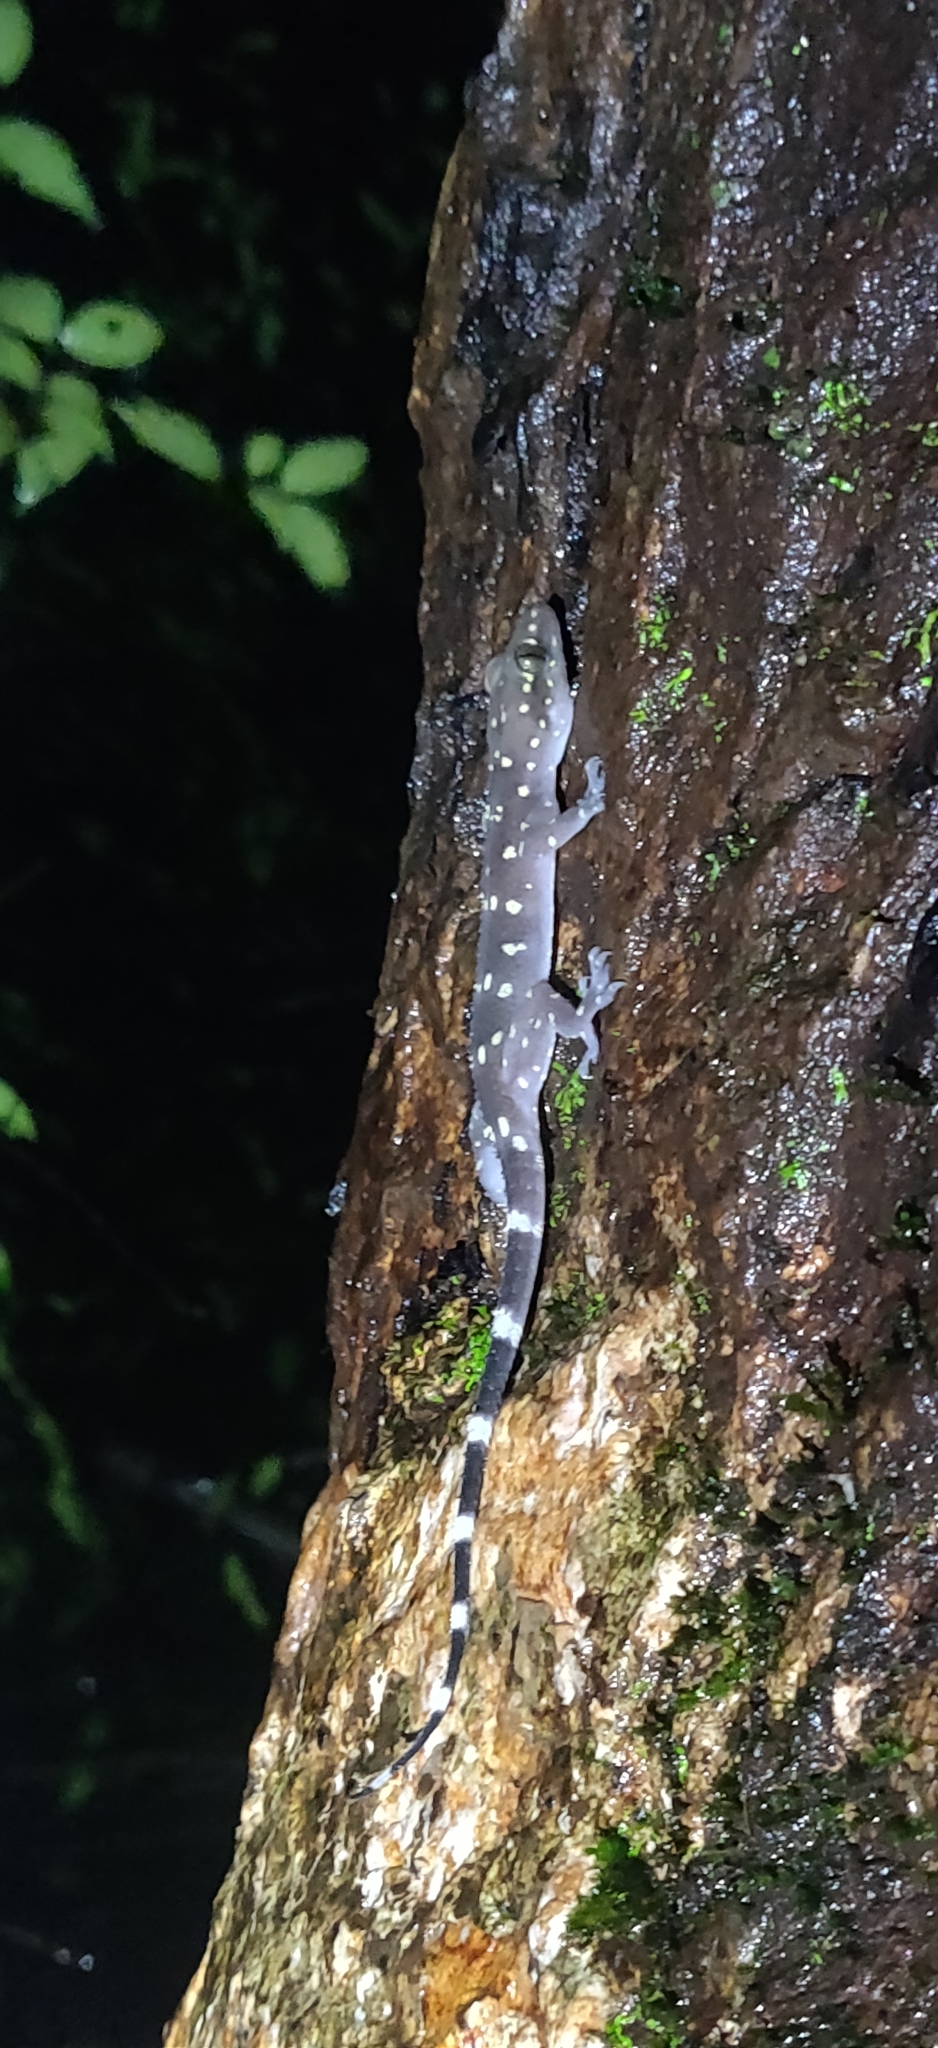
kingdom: Animalia
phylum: Chordata
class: Squamata
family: Gekkonidae
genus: Hemidactylus
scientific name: Hemidactylus prashadi
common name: Bombay leaf-toed gecko
